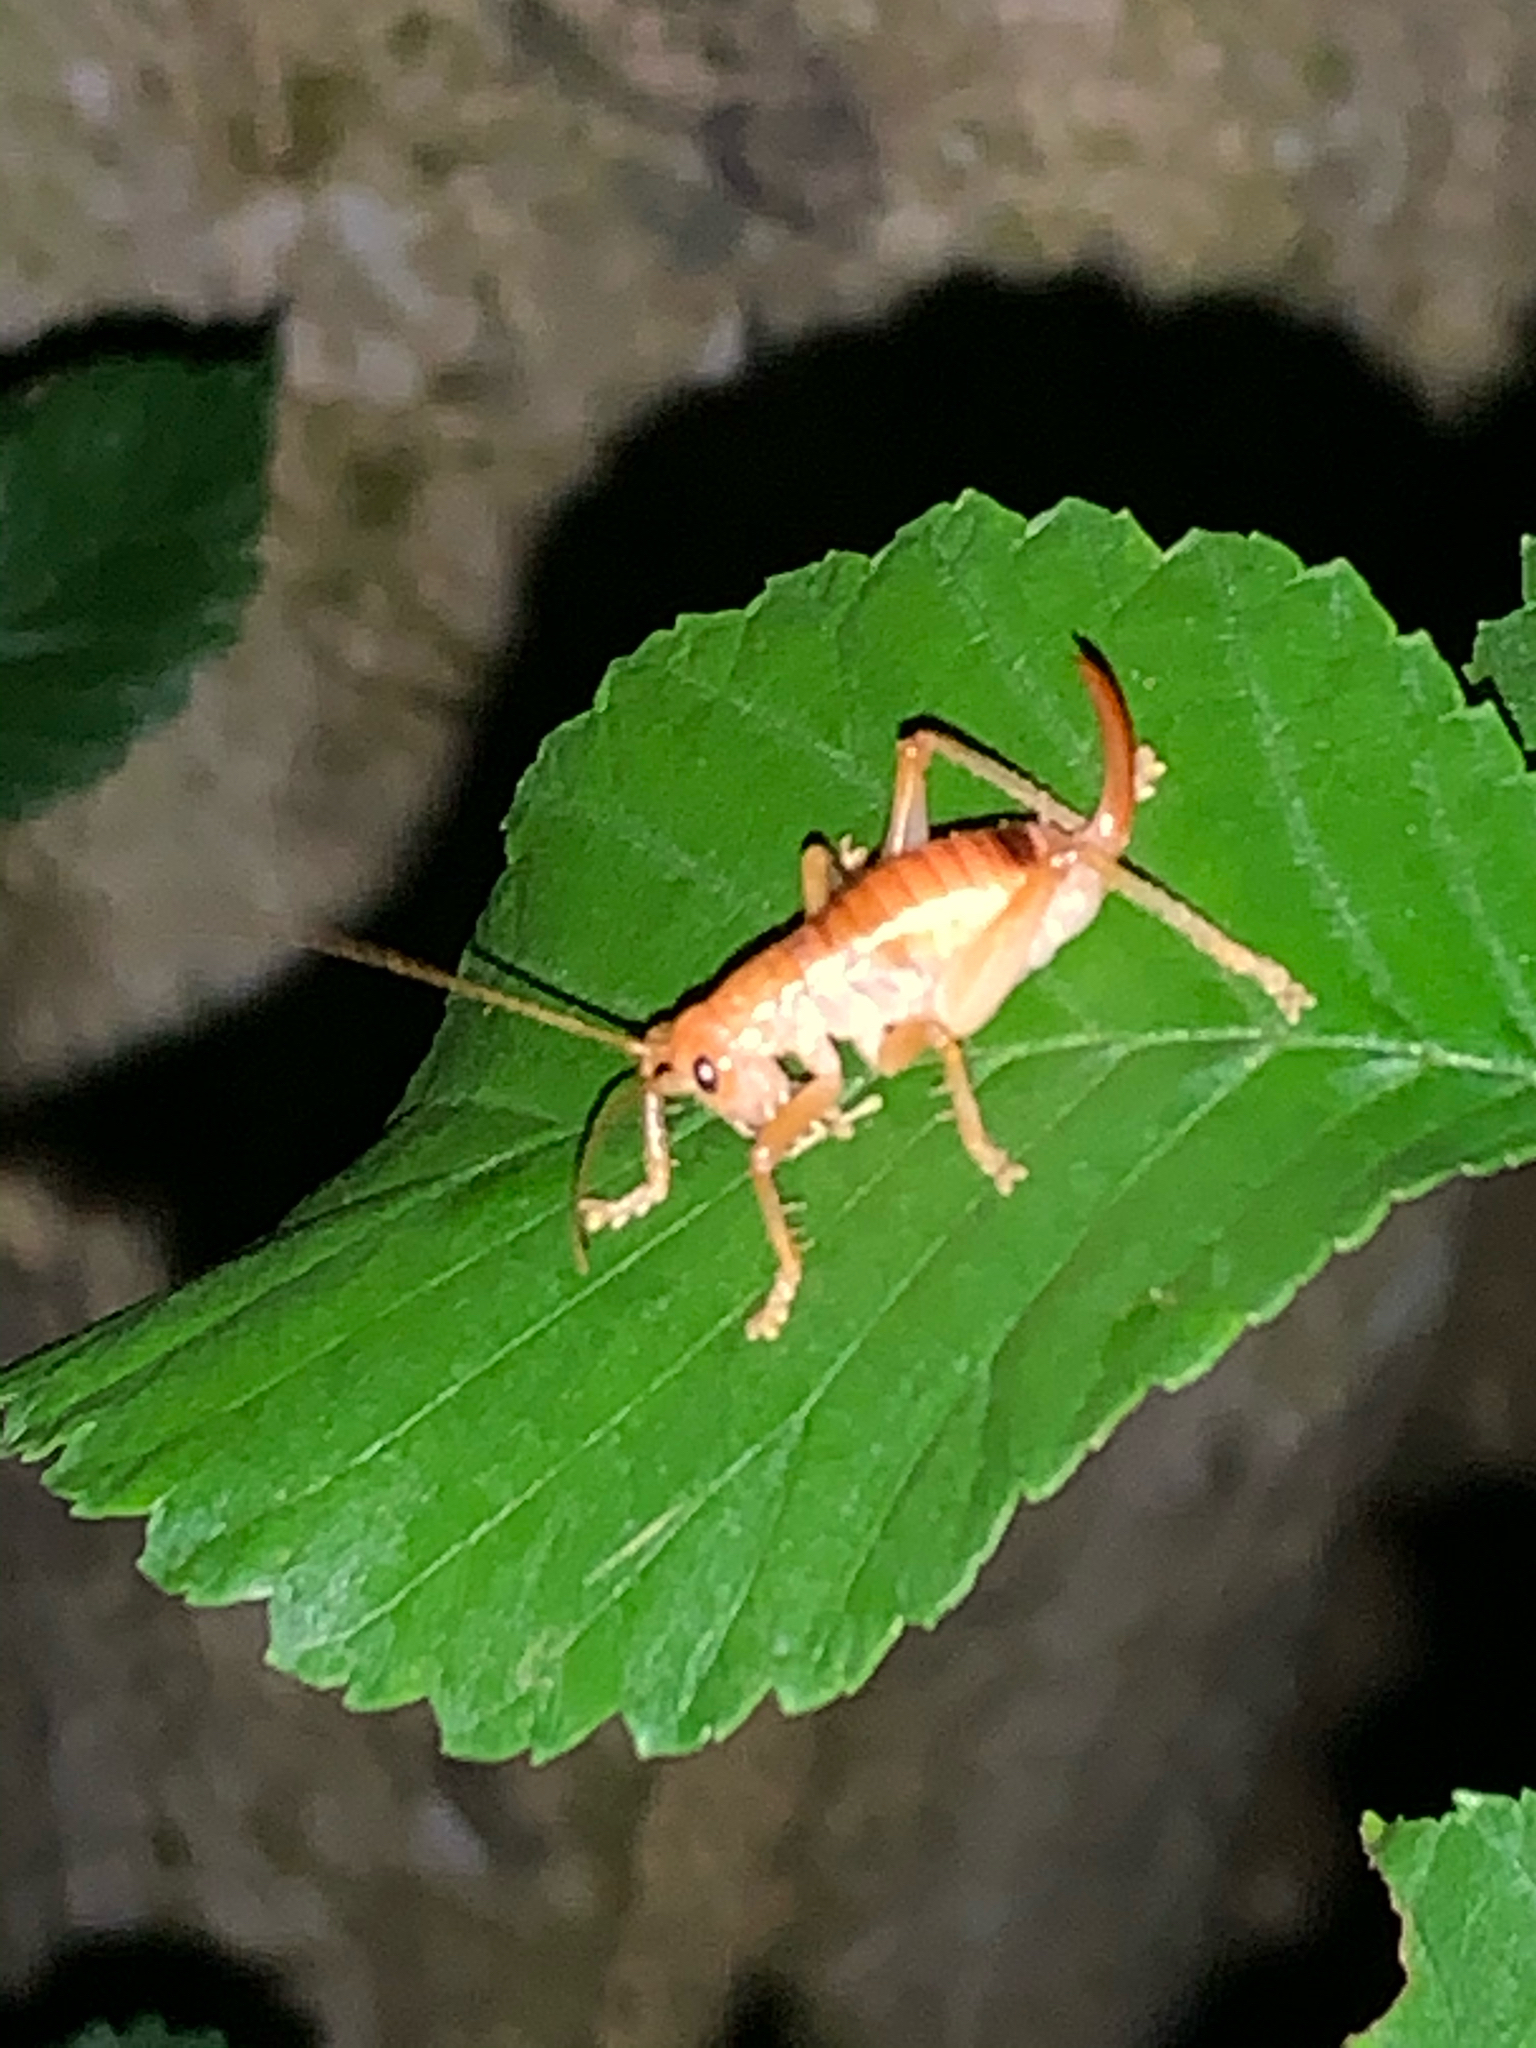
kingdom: Animalia
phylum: Arthropoda
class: Insecta
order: Orthoptera
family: Gryllacrididae
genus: Camptonotus
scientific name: Camptonotus carolinensis
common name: Carolina leaf-roller
